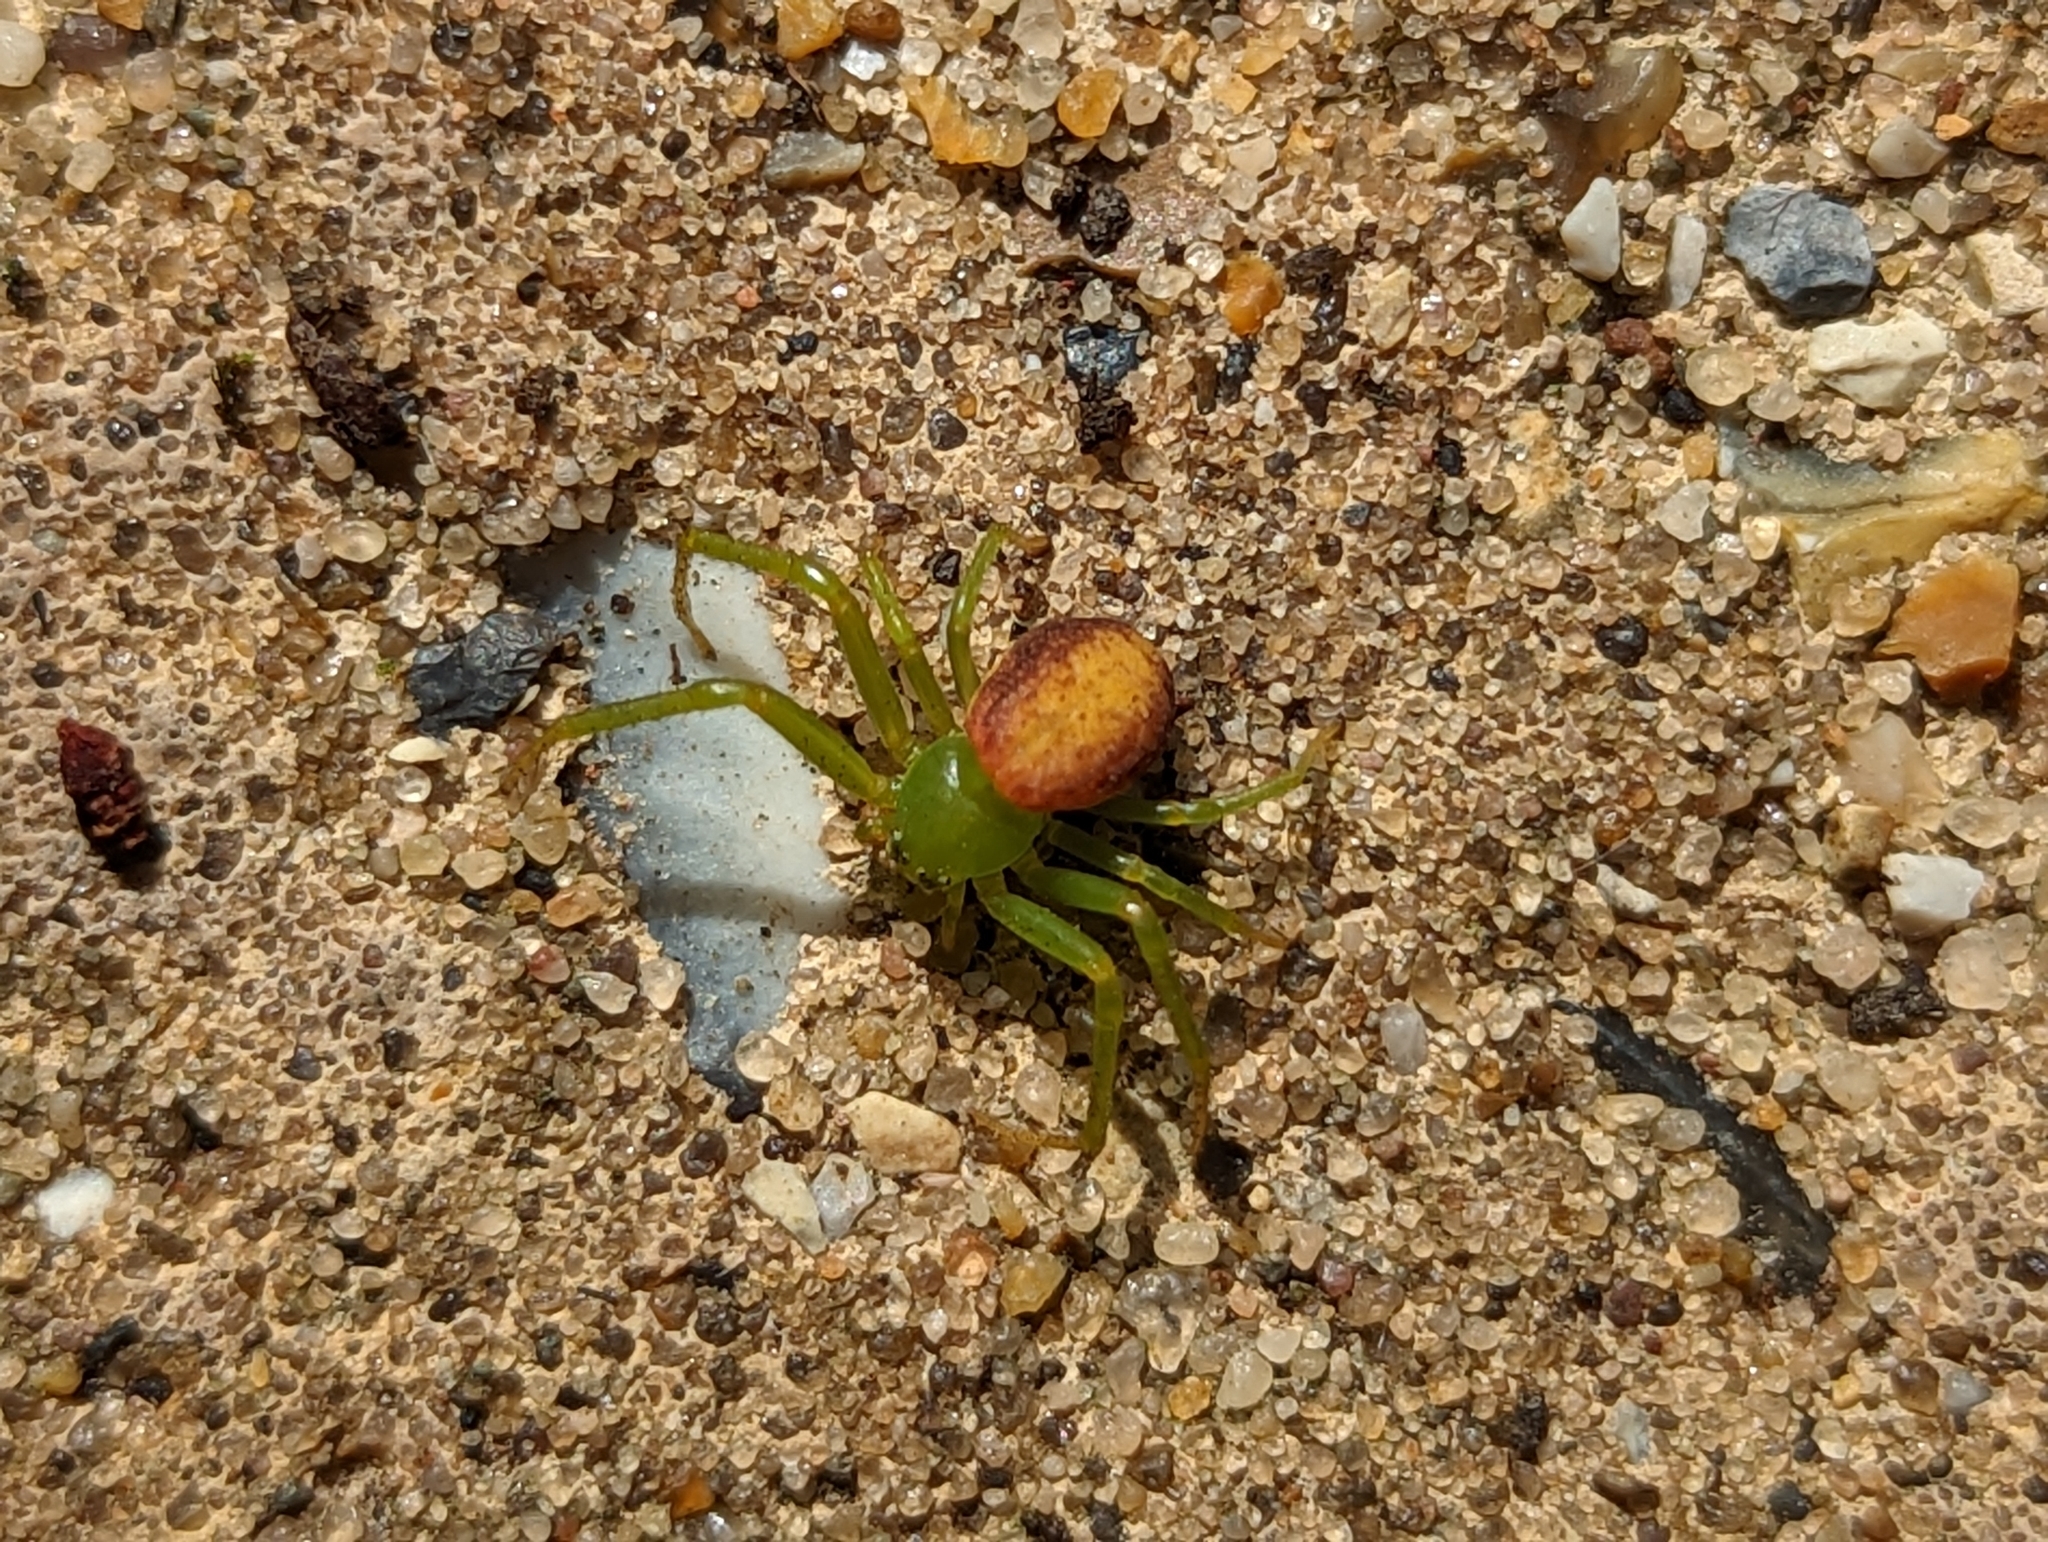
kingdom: Animalia
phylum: Arthropoda
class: Arachnida
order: Araneae
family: Thomisidae
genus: Diaea
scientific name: Diaea dorsata
